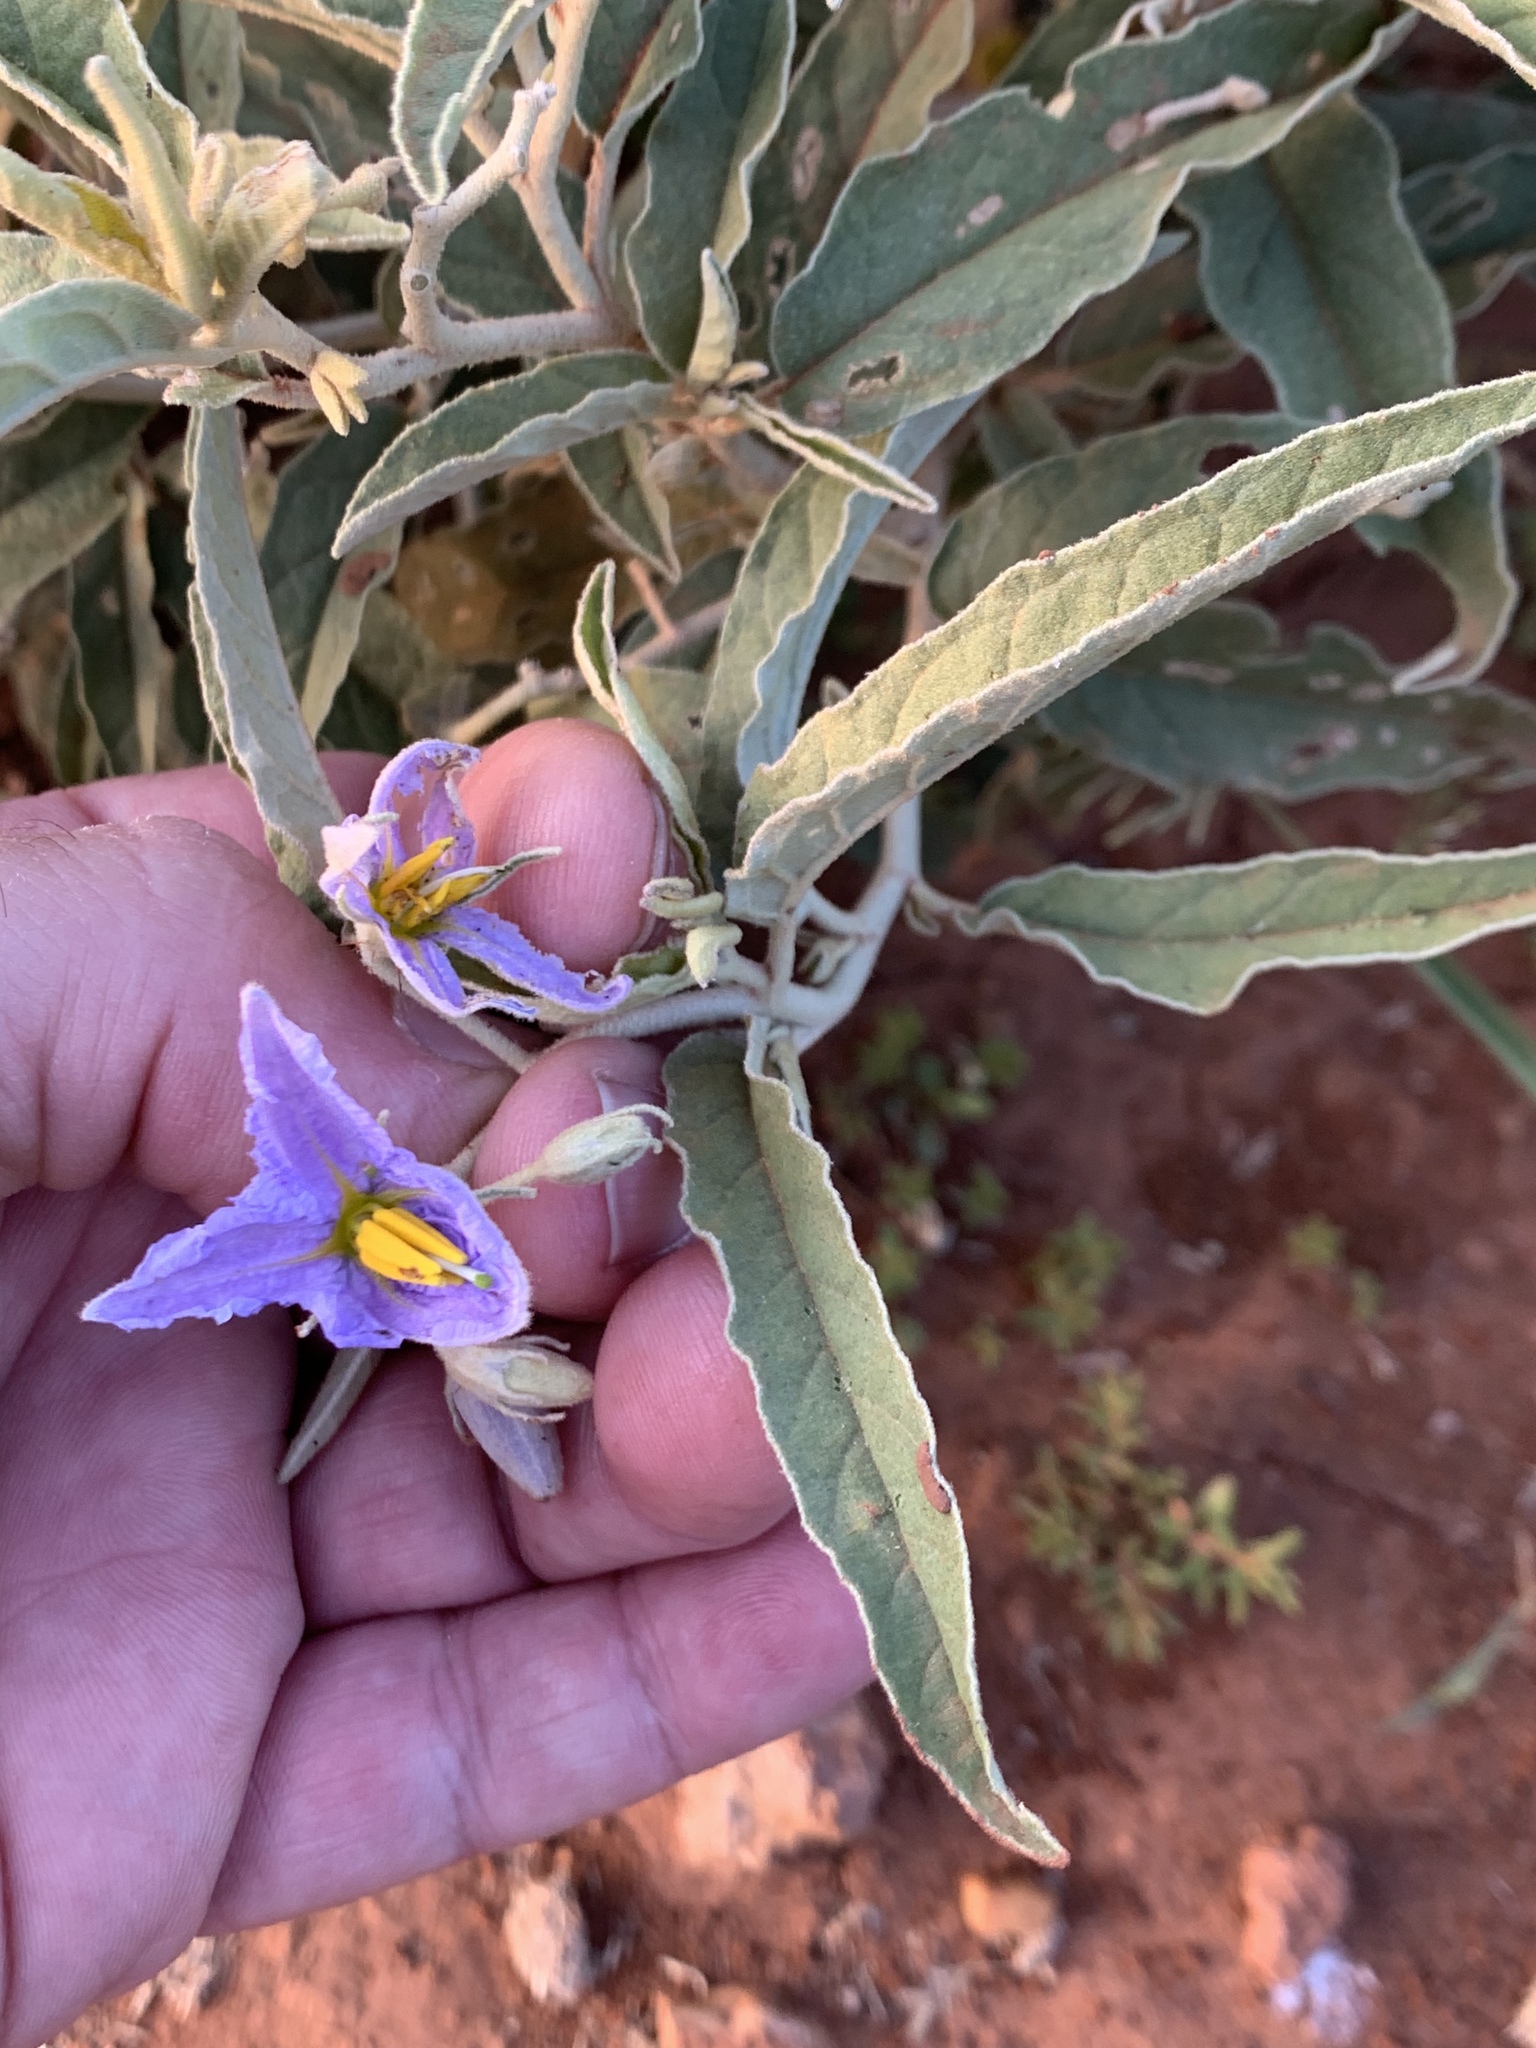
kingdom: Plantae
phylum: Tracheophyta
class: Magnoliopsida
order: Solanales
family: Solanaceae
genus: Solanum
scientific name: Solanum elaeagnifolium
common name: Silverleaf nightshade
